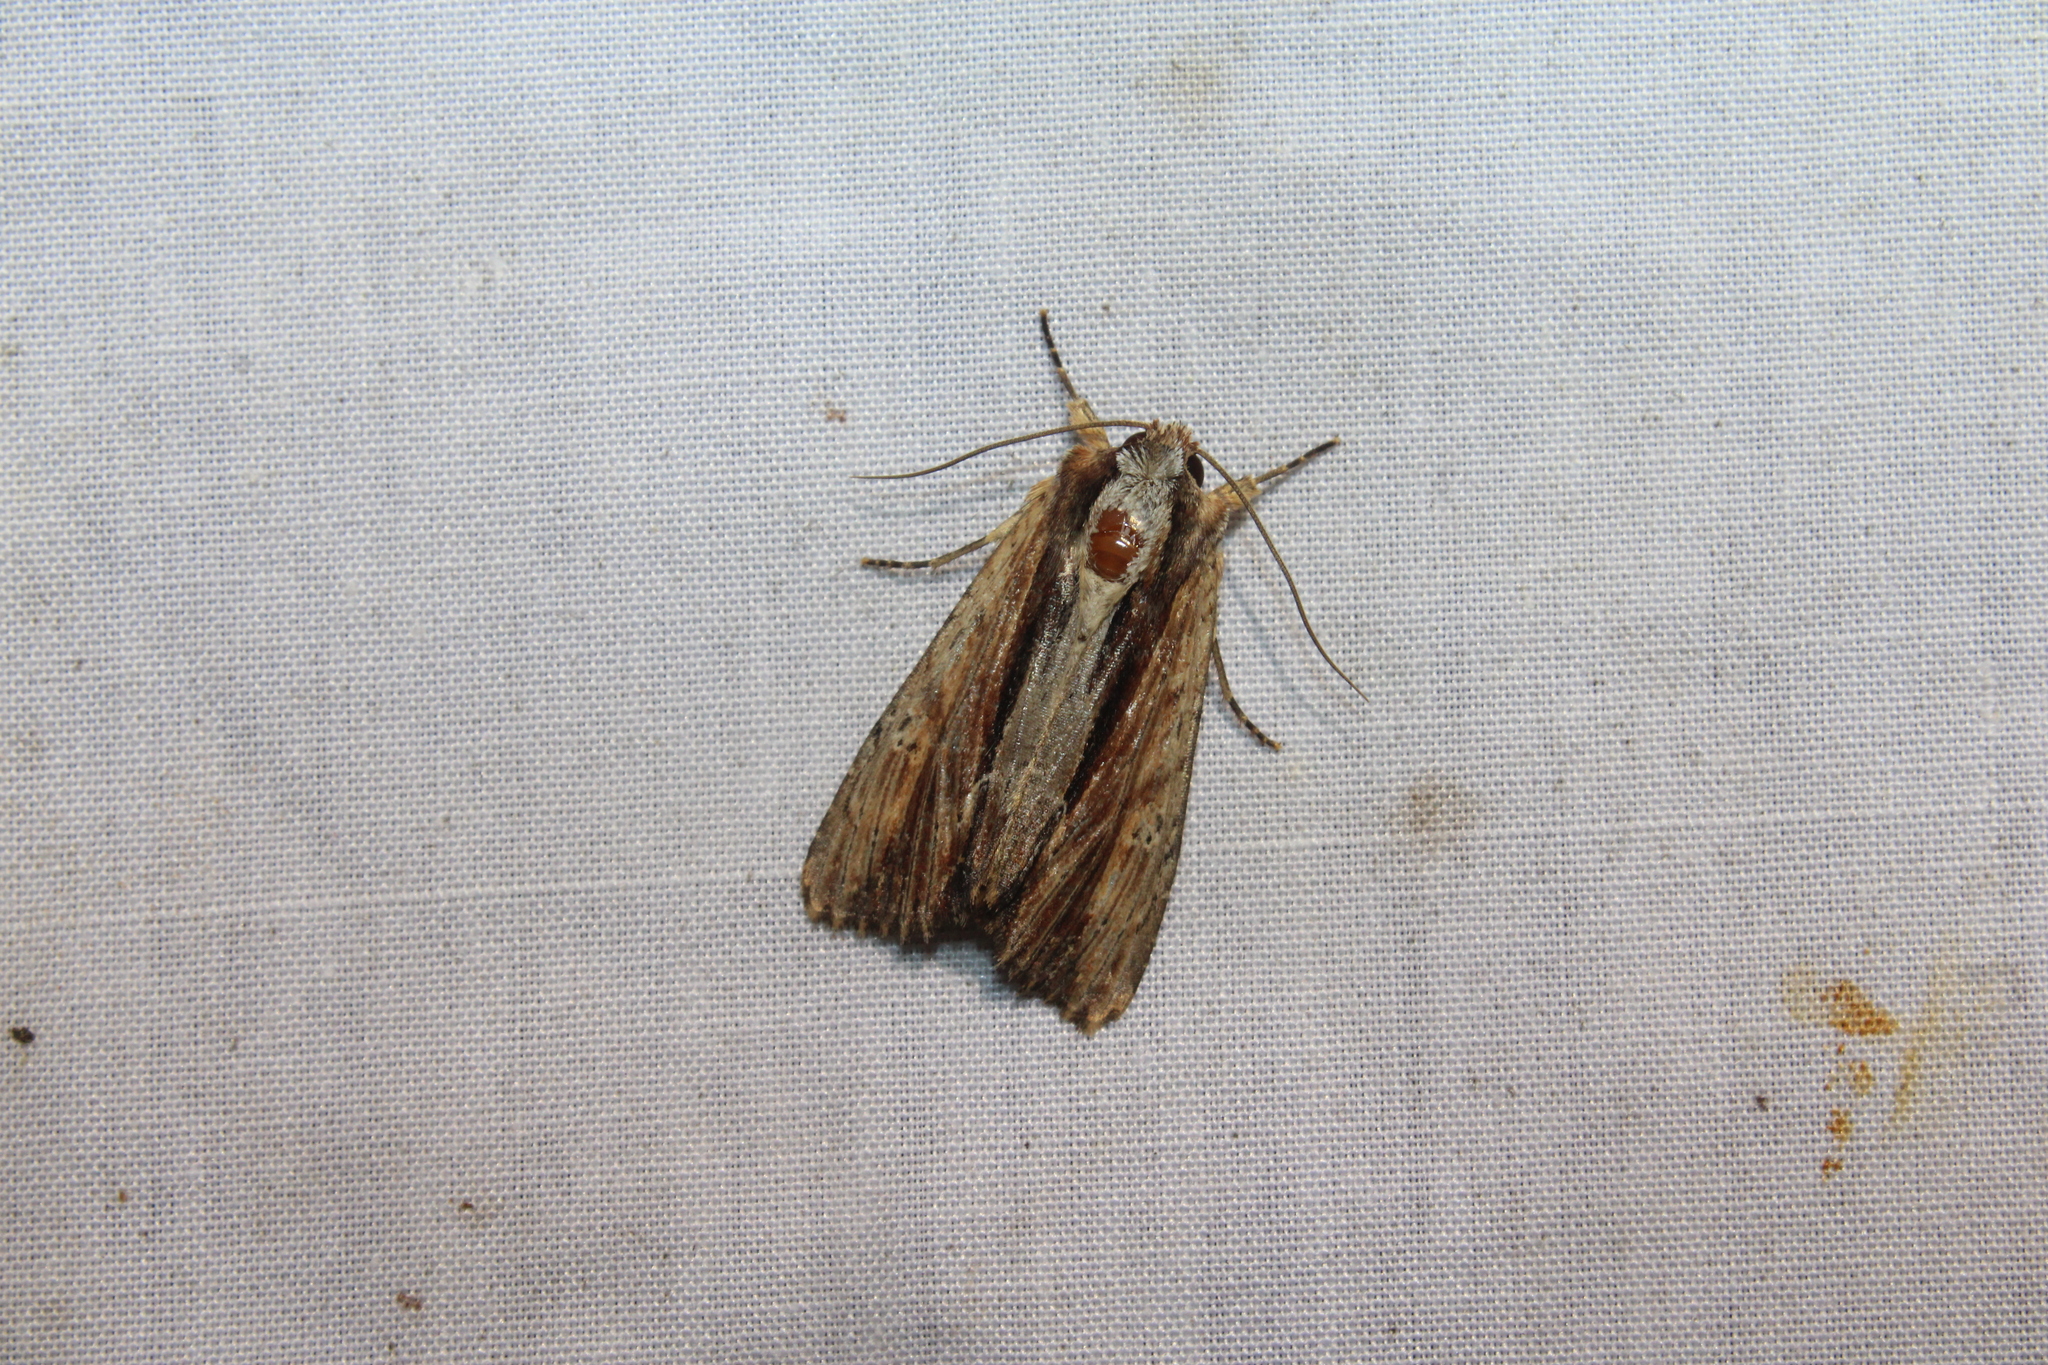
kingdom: Animalia
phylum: Arthropoda
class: Insecta
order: Lepidoptera
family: Noctuidae
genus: Apamea
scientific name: Apamea inebriata
